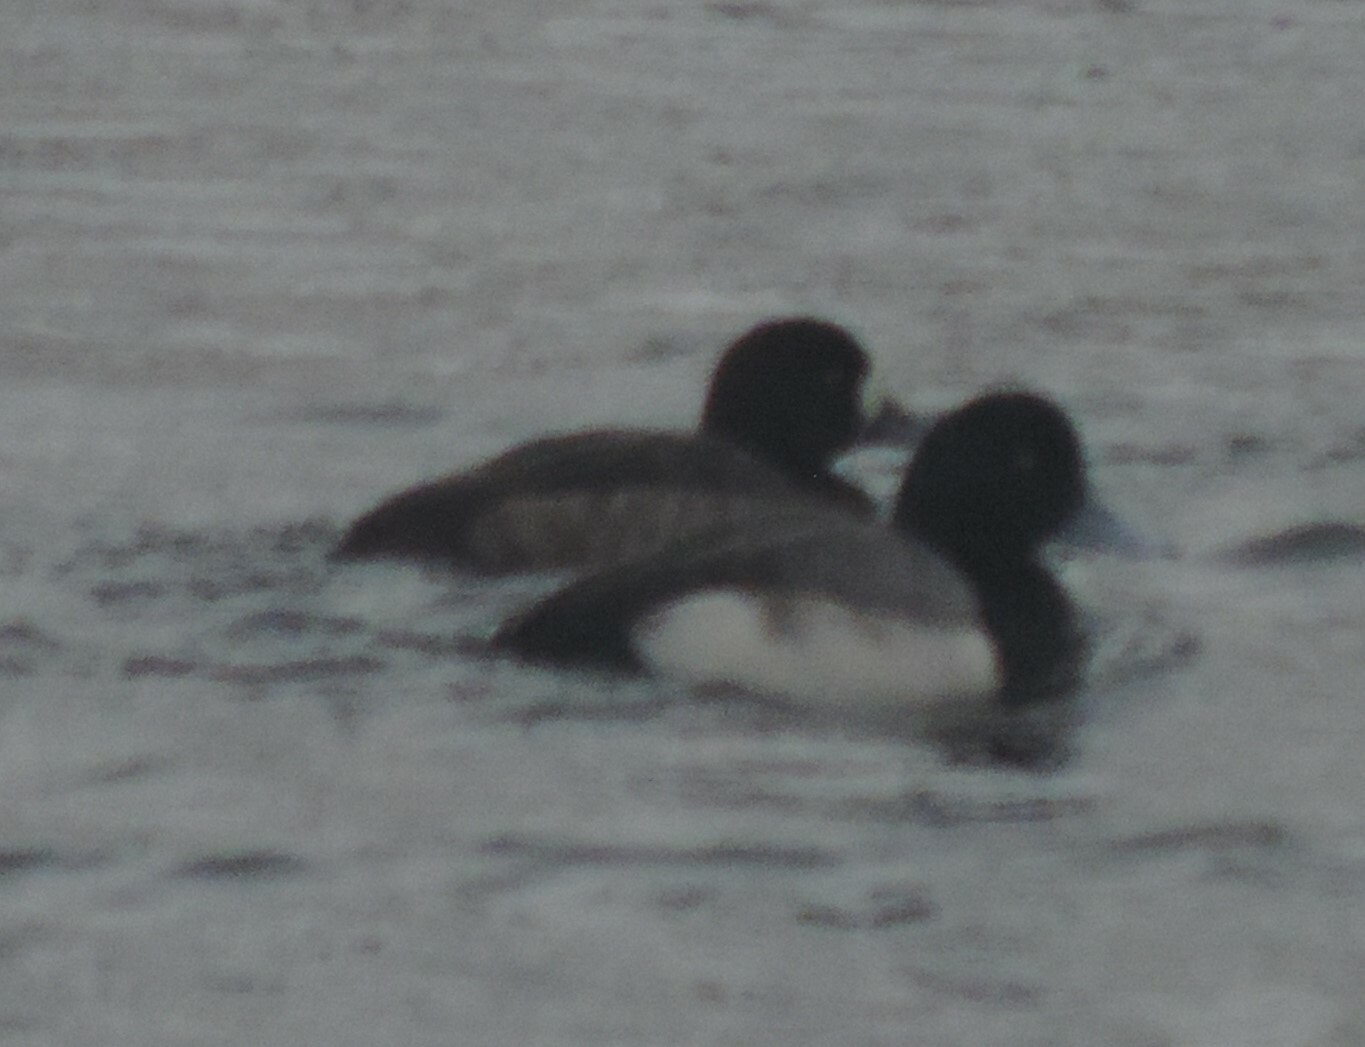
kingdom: Animalia
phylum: Chordata
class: Aves
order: Anseriformes
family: Anatidae
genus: Aythya
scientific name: Aythya marila
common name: Greater scaup
